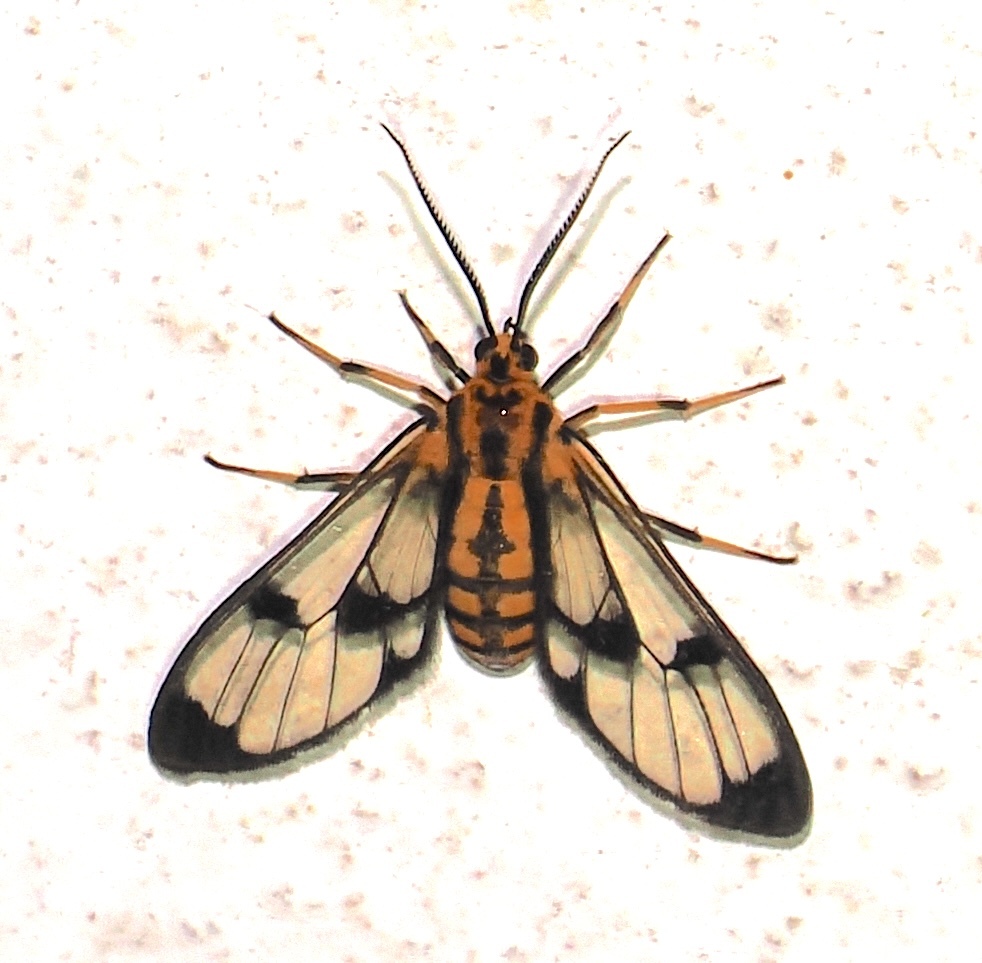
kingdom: Animalia
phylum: Arthropoda
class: Insecta
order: Lepidoptera
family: Erebidae
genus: Loxophlebia
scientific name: Loxophlebia flavinigra
